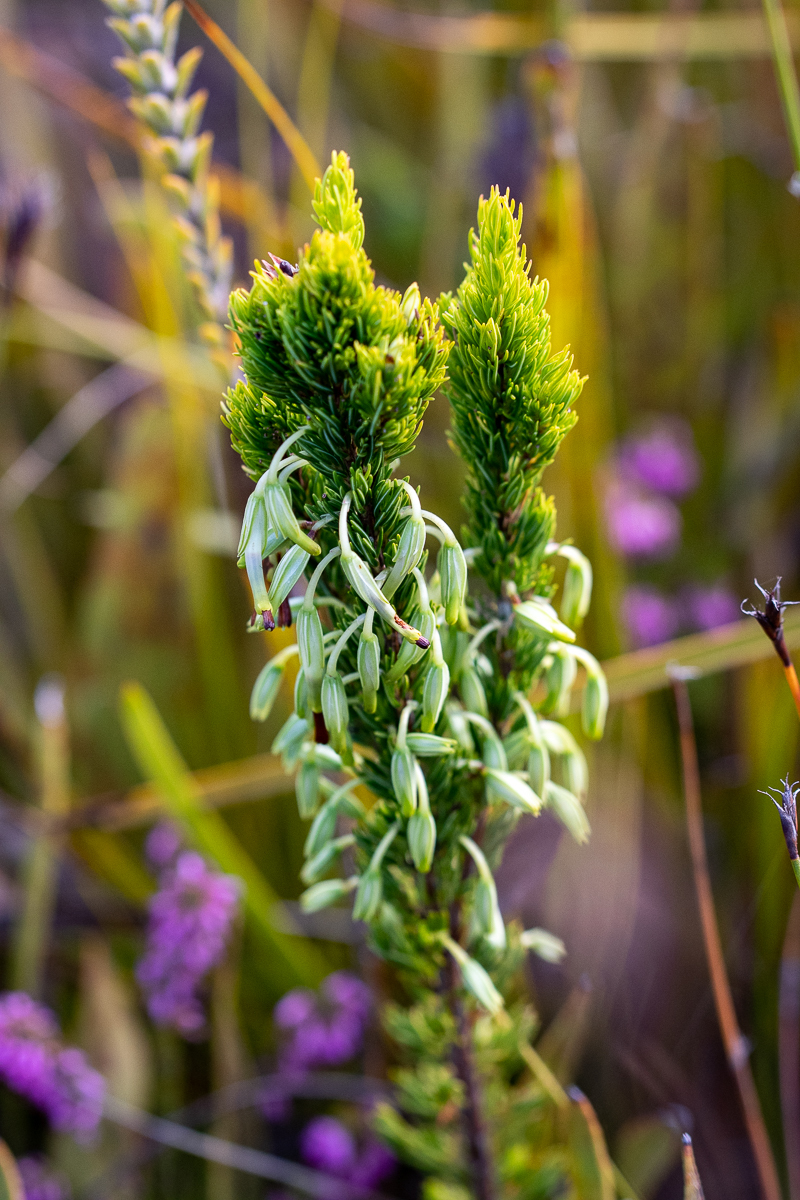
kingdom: Plantae
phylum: Tracheophyta
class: Magnoliopsida
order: Ericales
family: Ericaceae
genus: Erica
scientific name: Erica plukenetii
